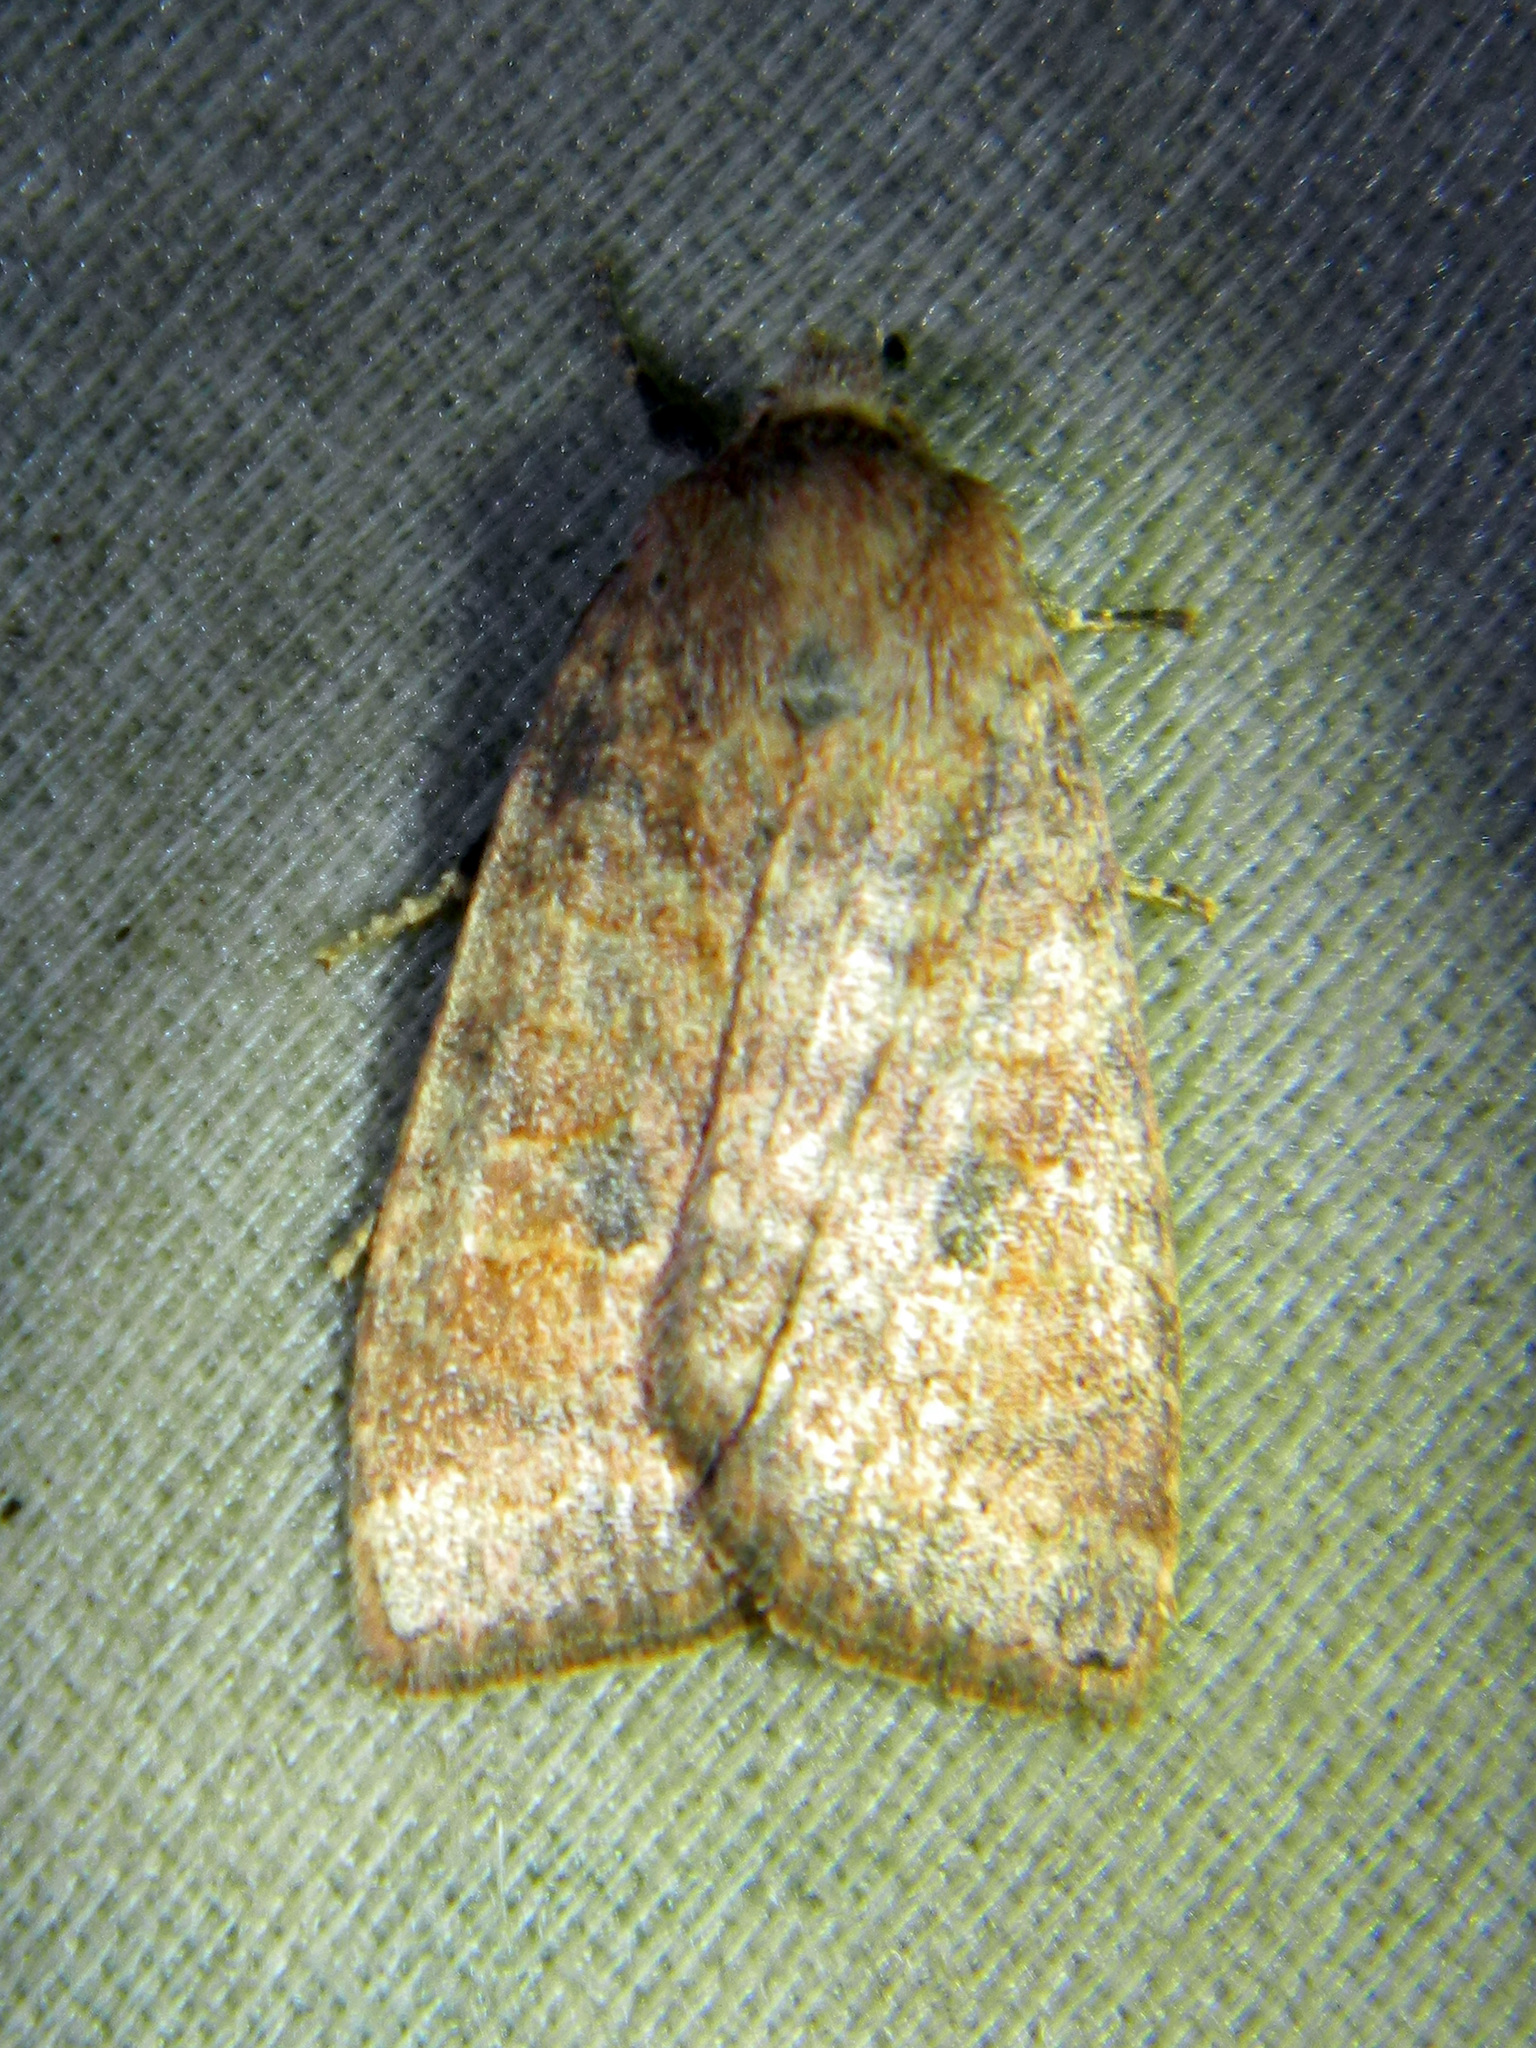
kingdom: Animalia
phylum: Arthropoda
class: Insecta
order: Lepidoptera
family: Noctuidae
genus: Anathix
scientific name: Anathix puta
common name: Puta sallow
